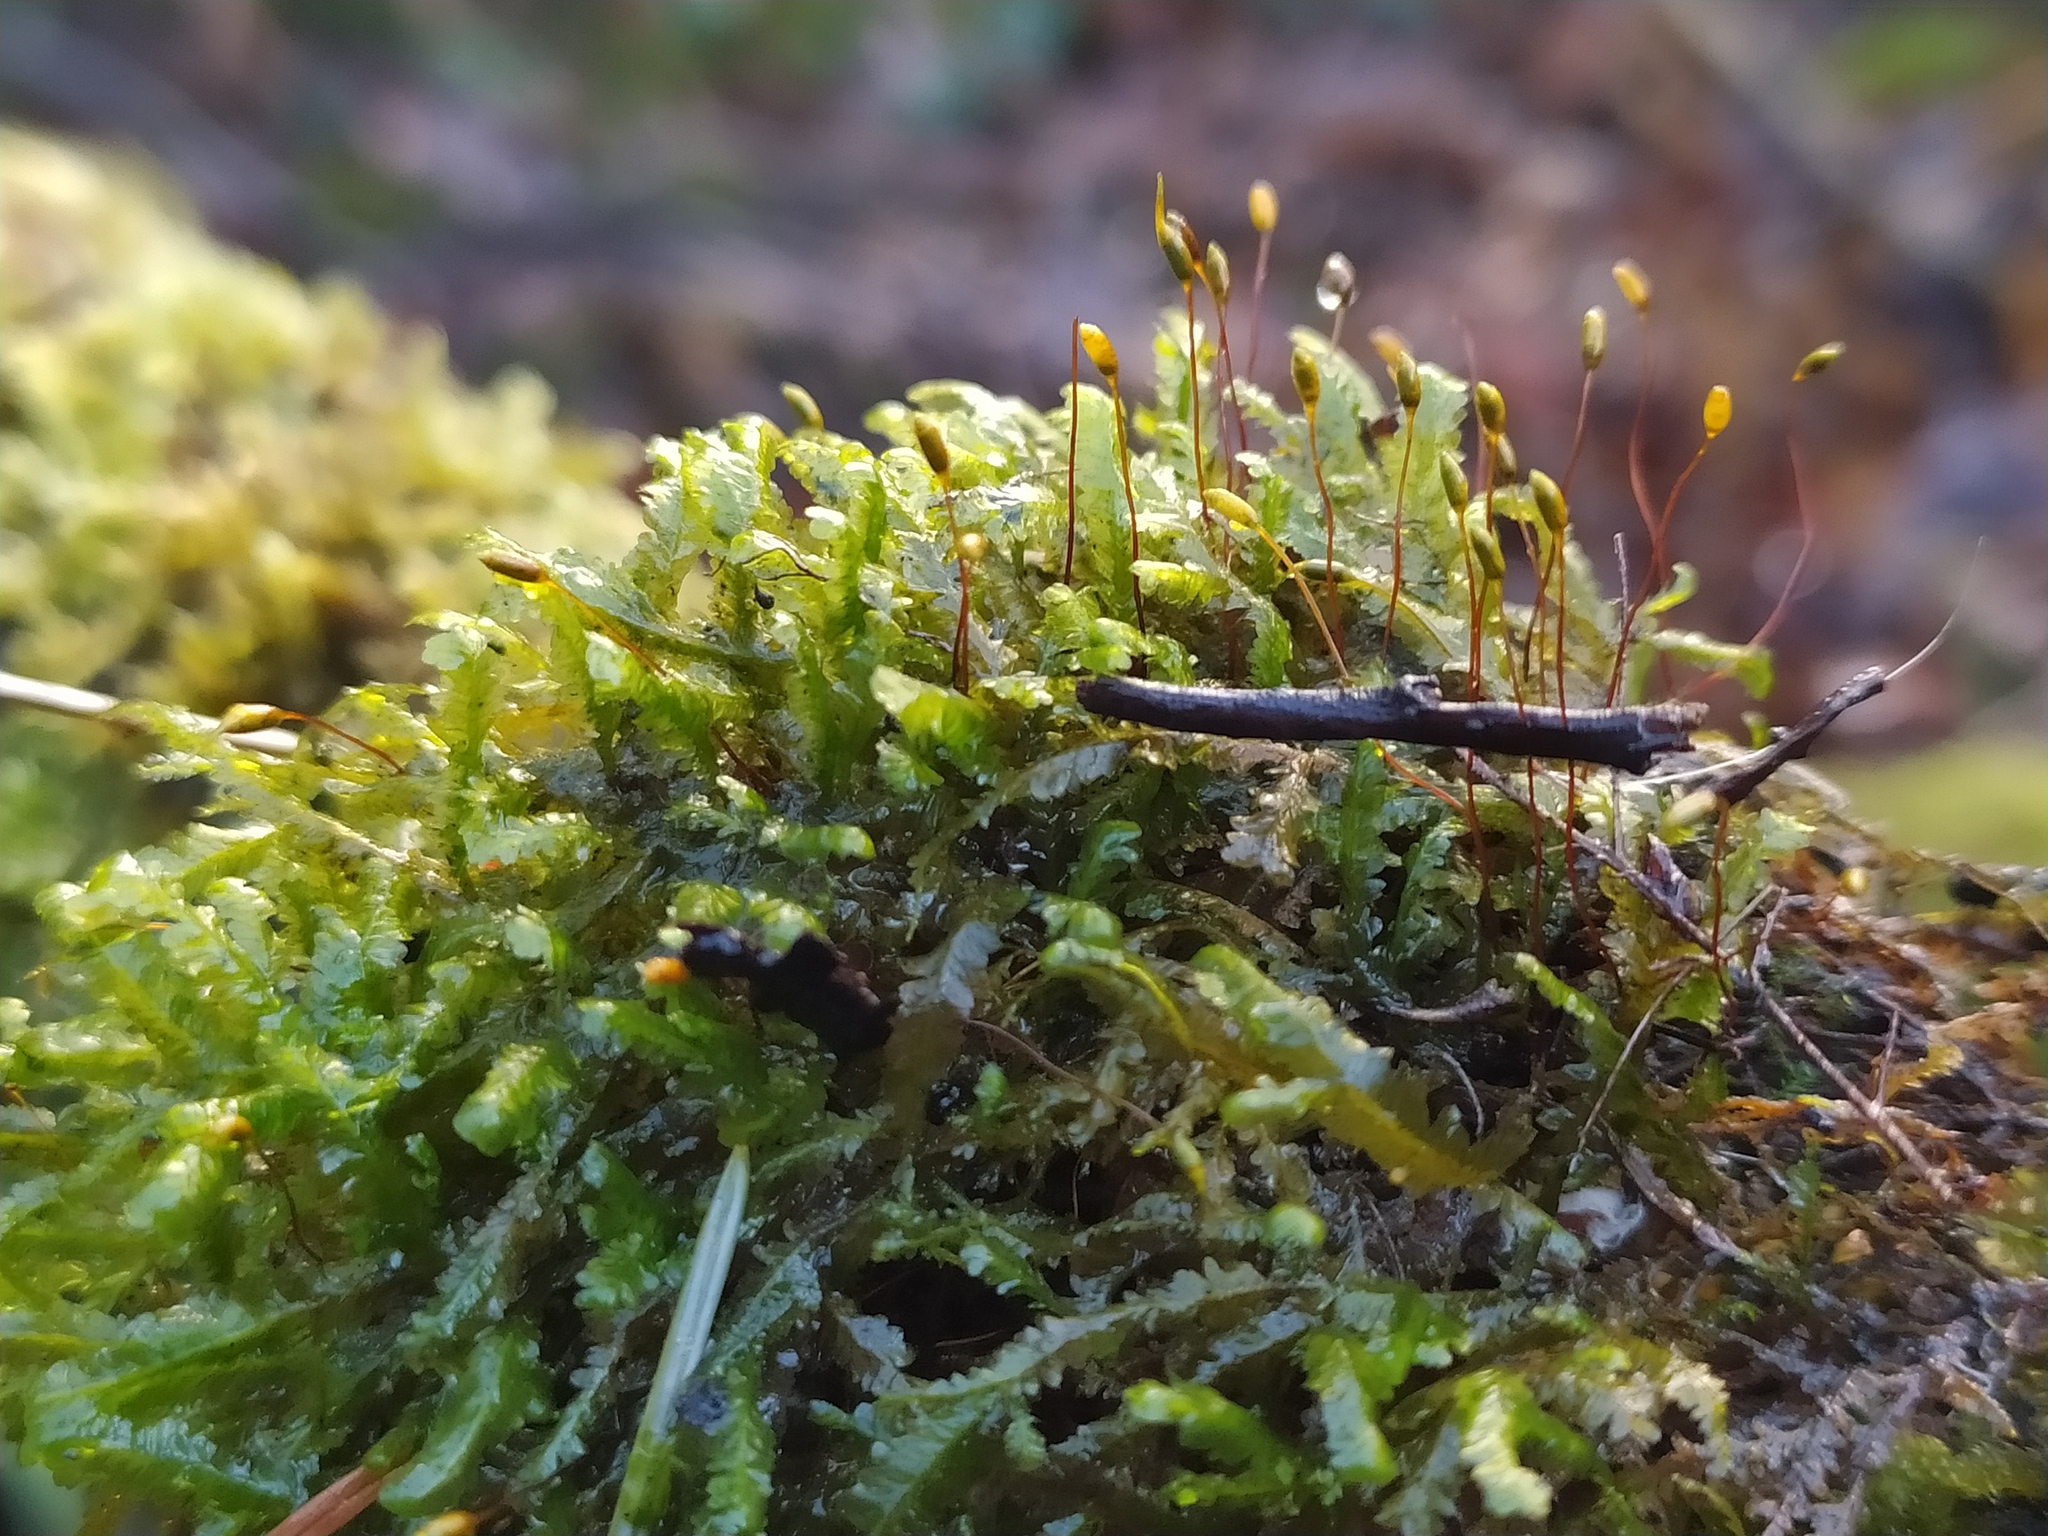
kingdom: Plantae
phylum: Bryophyta
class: Bryopsida
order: Hypnales
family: Neckeraceae
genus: Homalia
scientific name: Homalia trichomanoides
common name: Lime homalia moss
